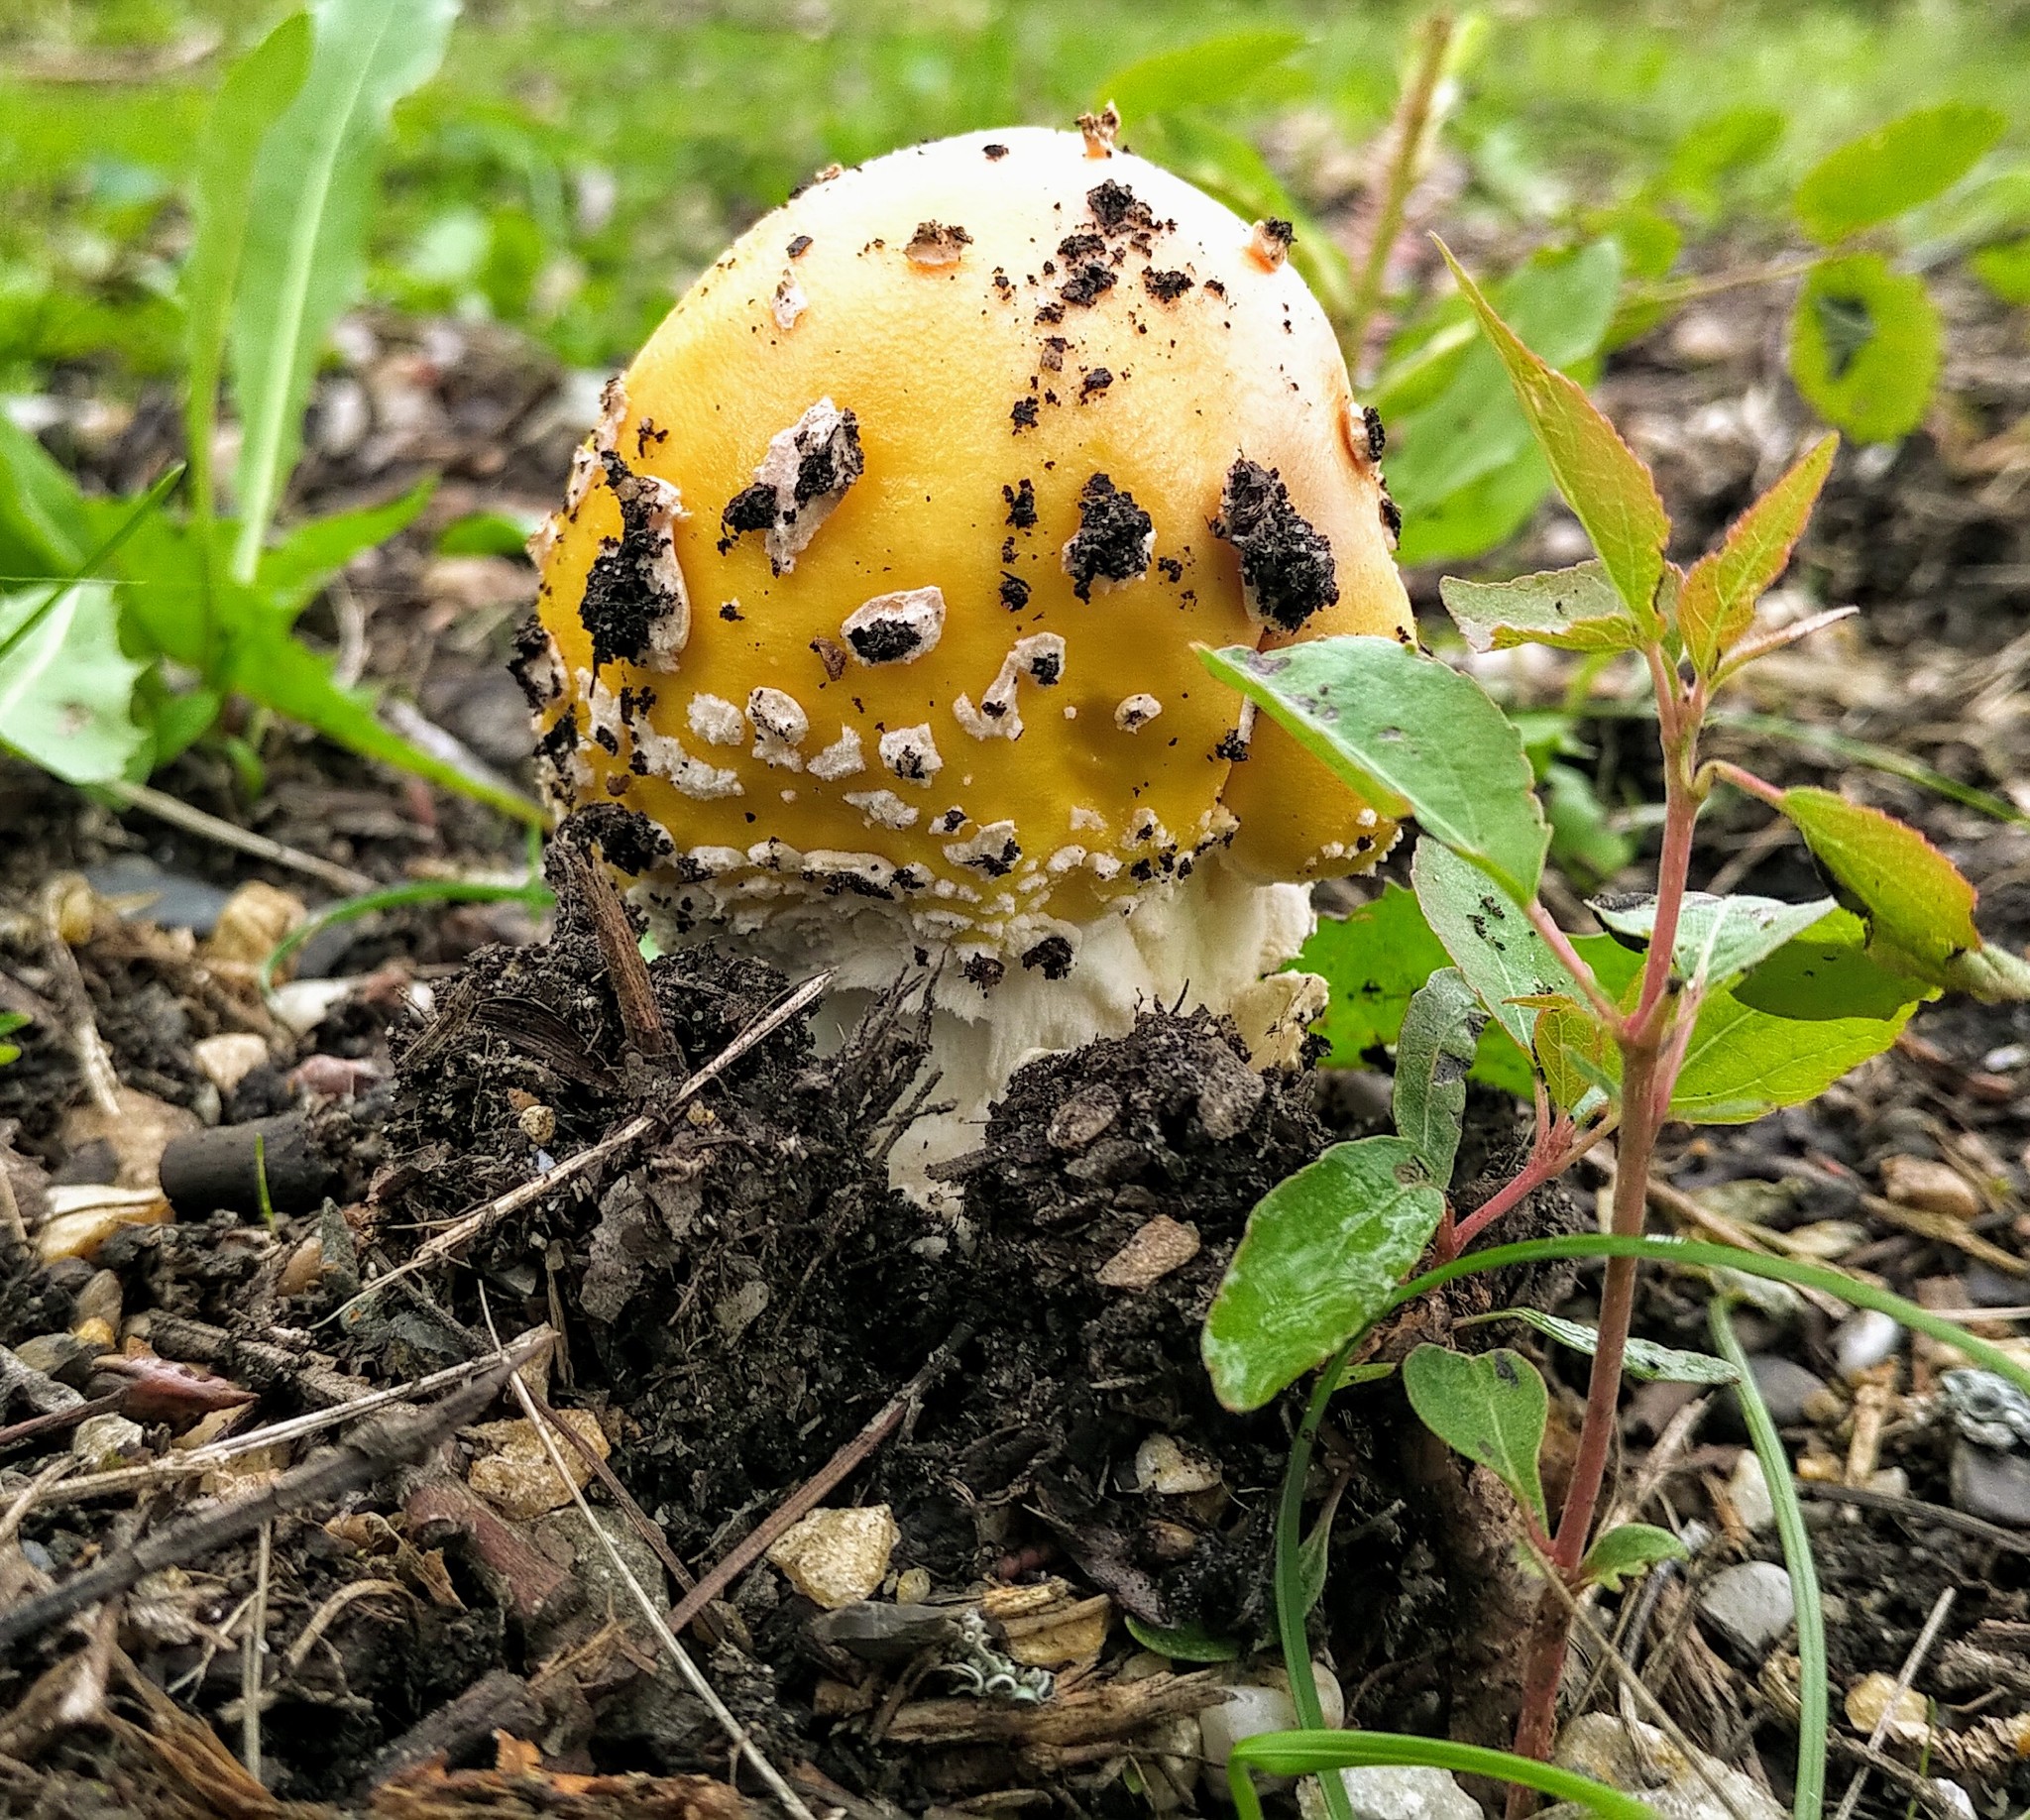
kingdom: Fungi
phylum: Basidiomycota
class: Agaricomycetes
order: Agaricales
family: Amanitaceae
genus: Amanita
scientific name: Amanita muscaria
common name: Fly agaric
